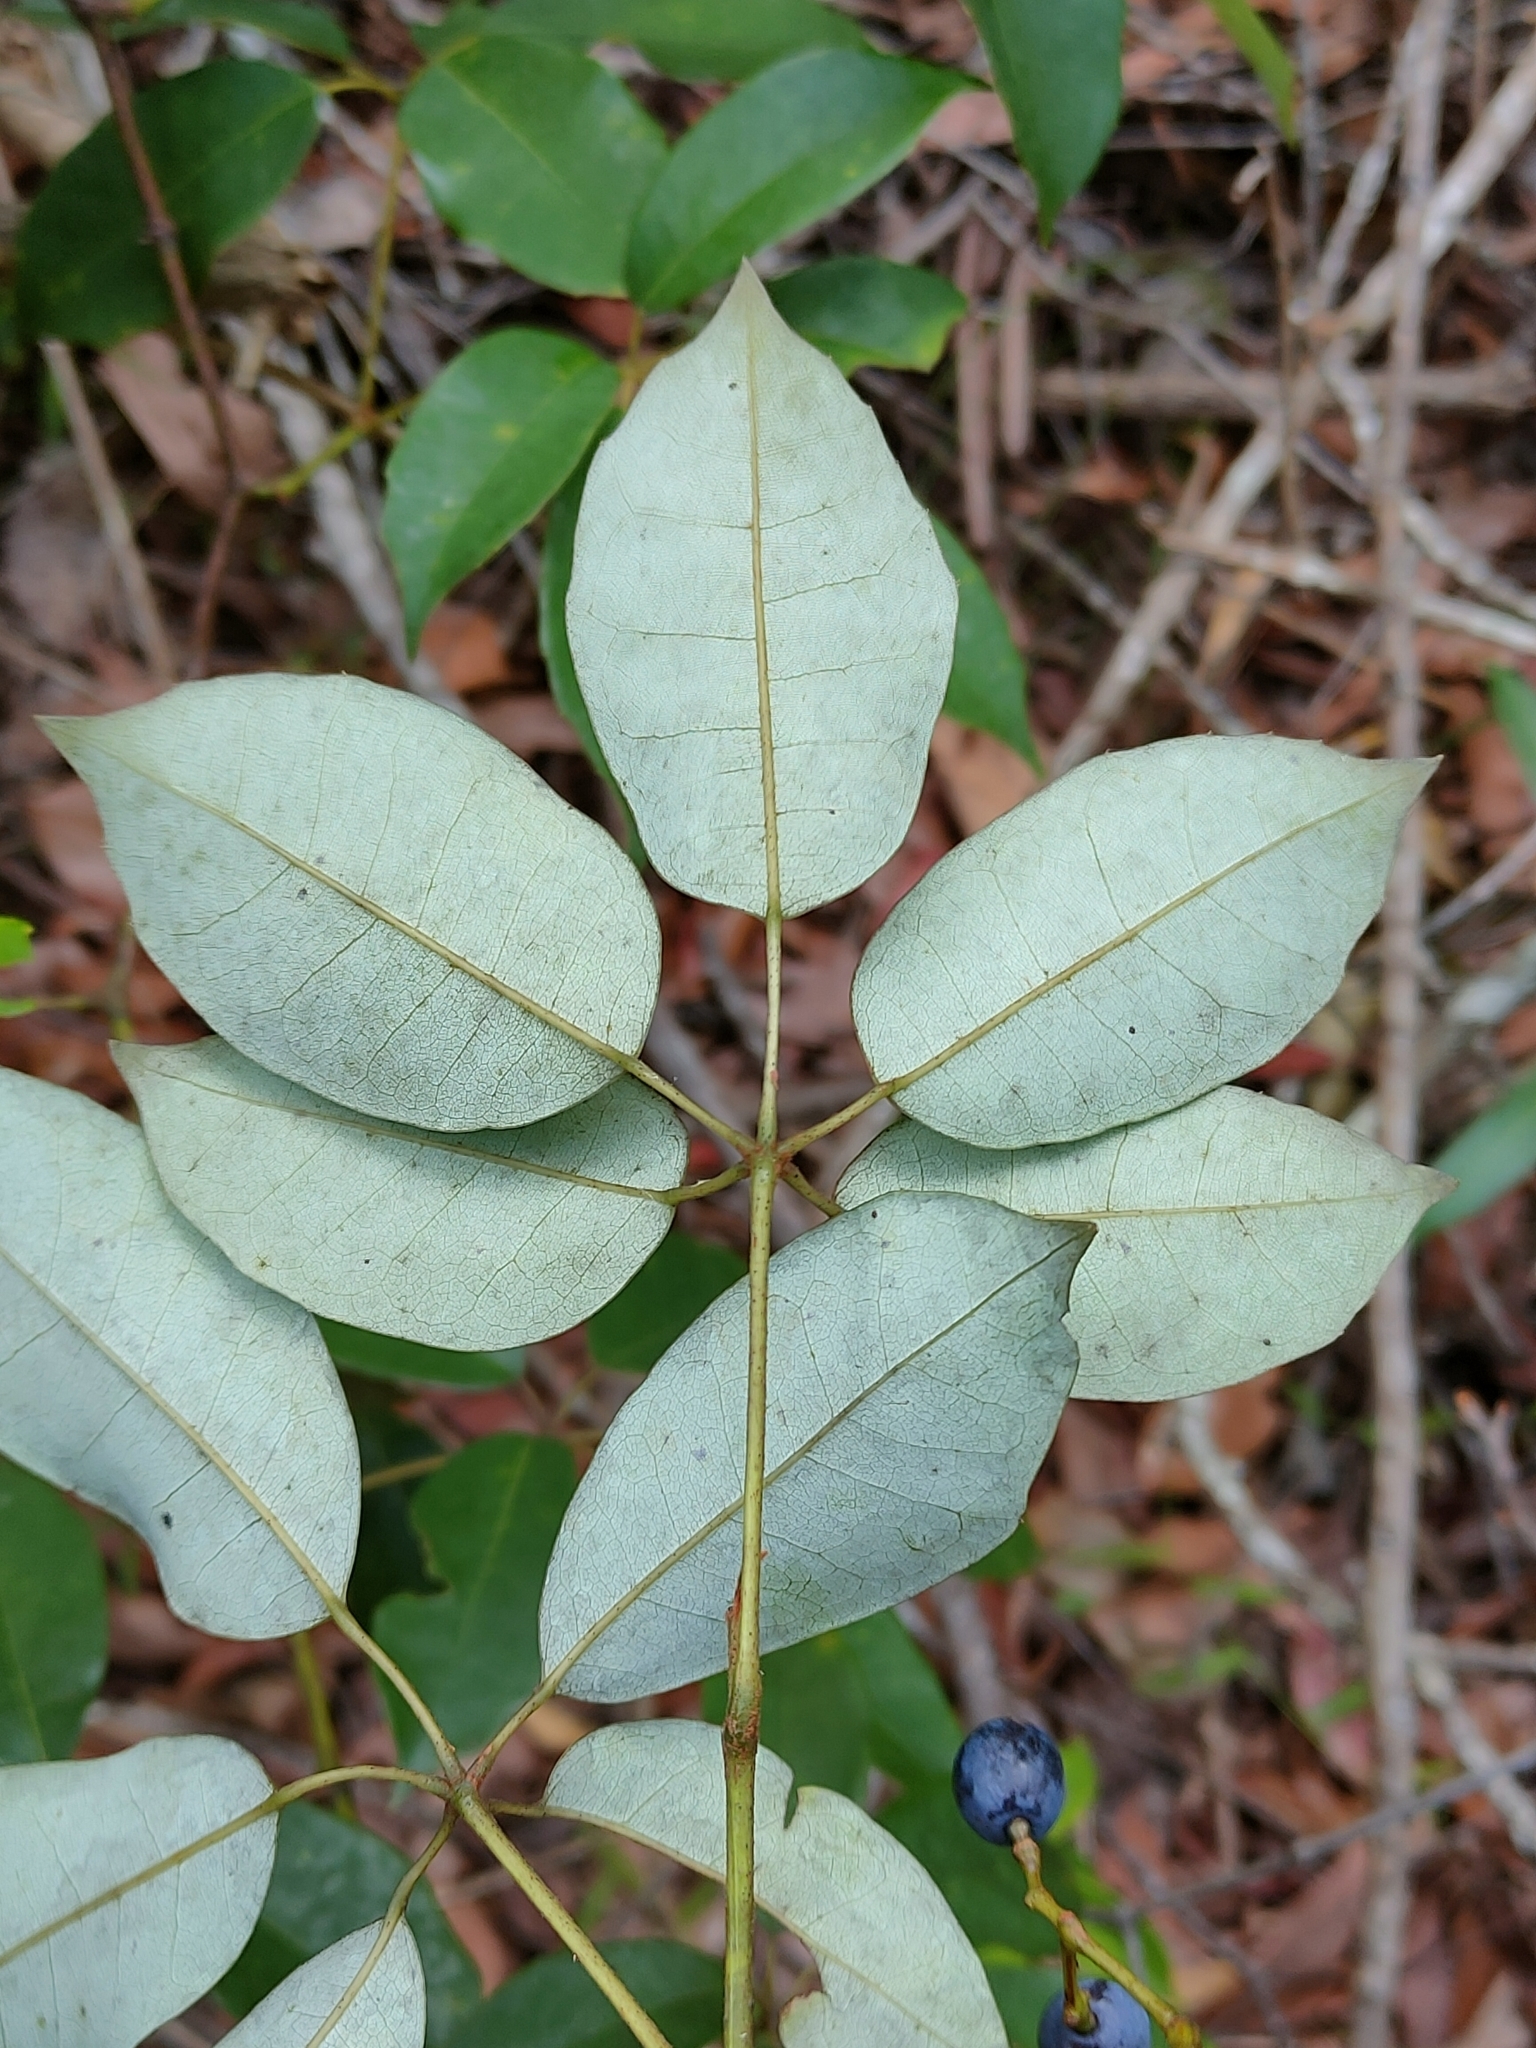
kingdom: Plantae
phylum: Tracheophyta
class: Magnoliopsida
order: Vitales
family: Vitaceae
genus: Nothocissus
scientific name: Nothocissus hypoglauca
